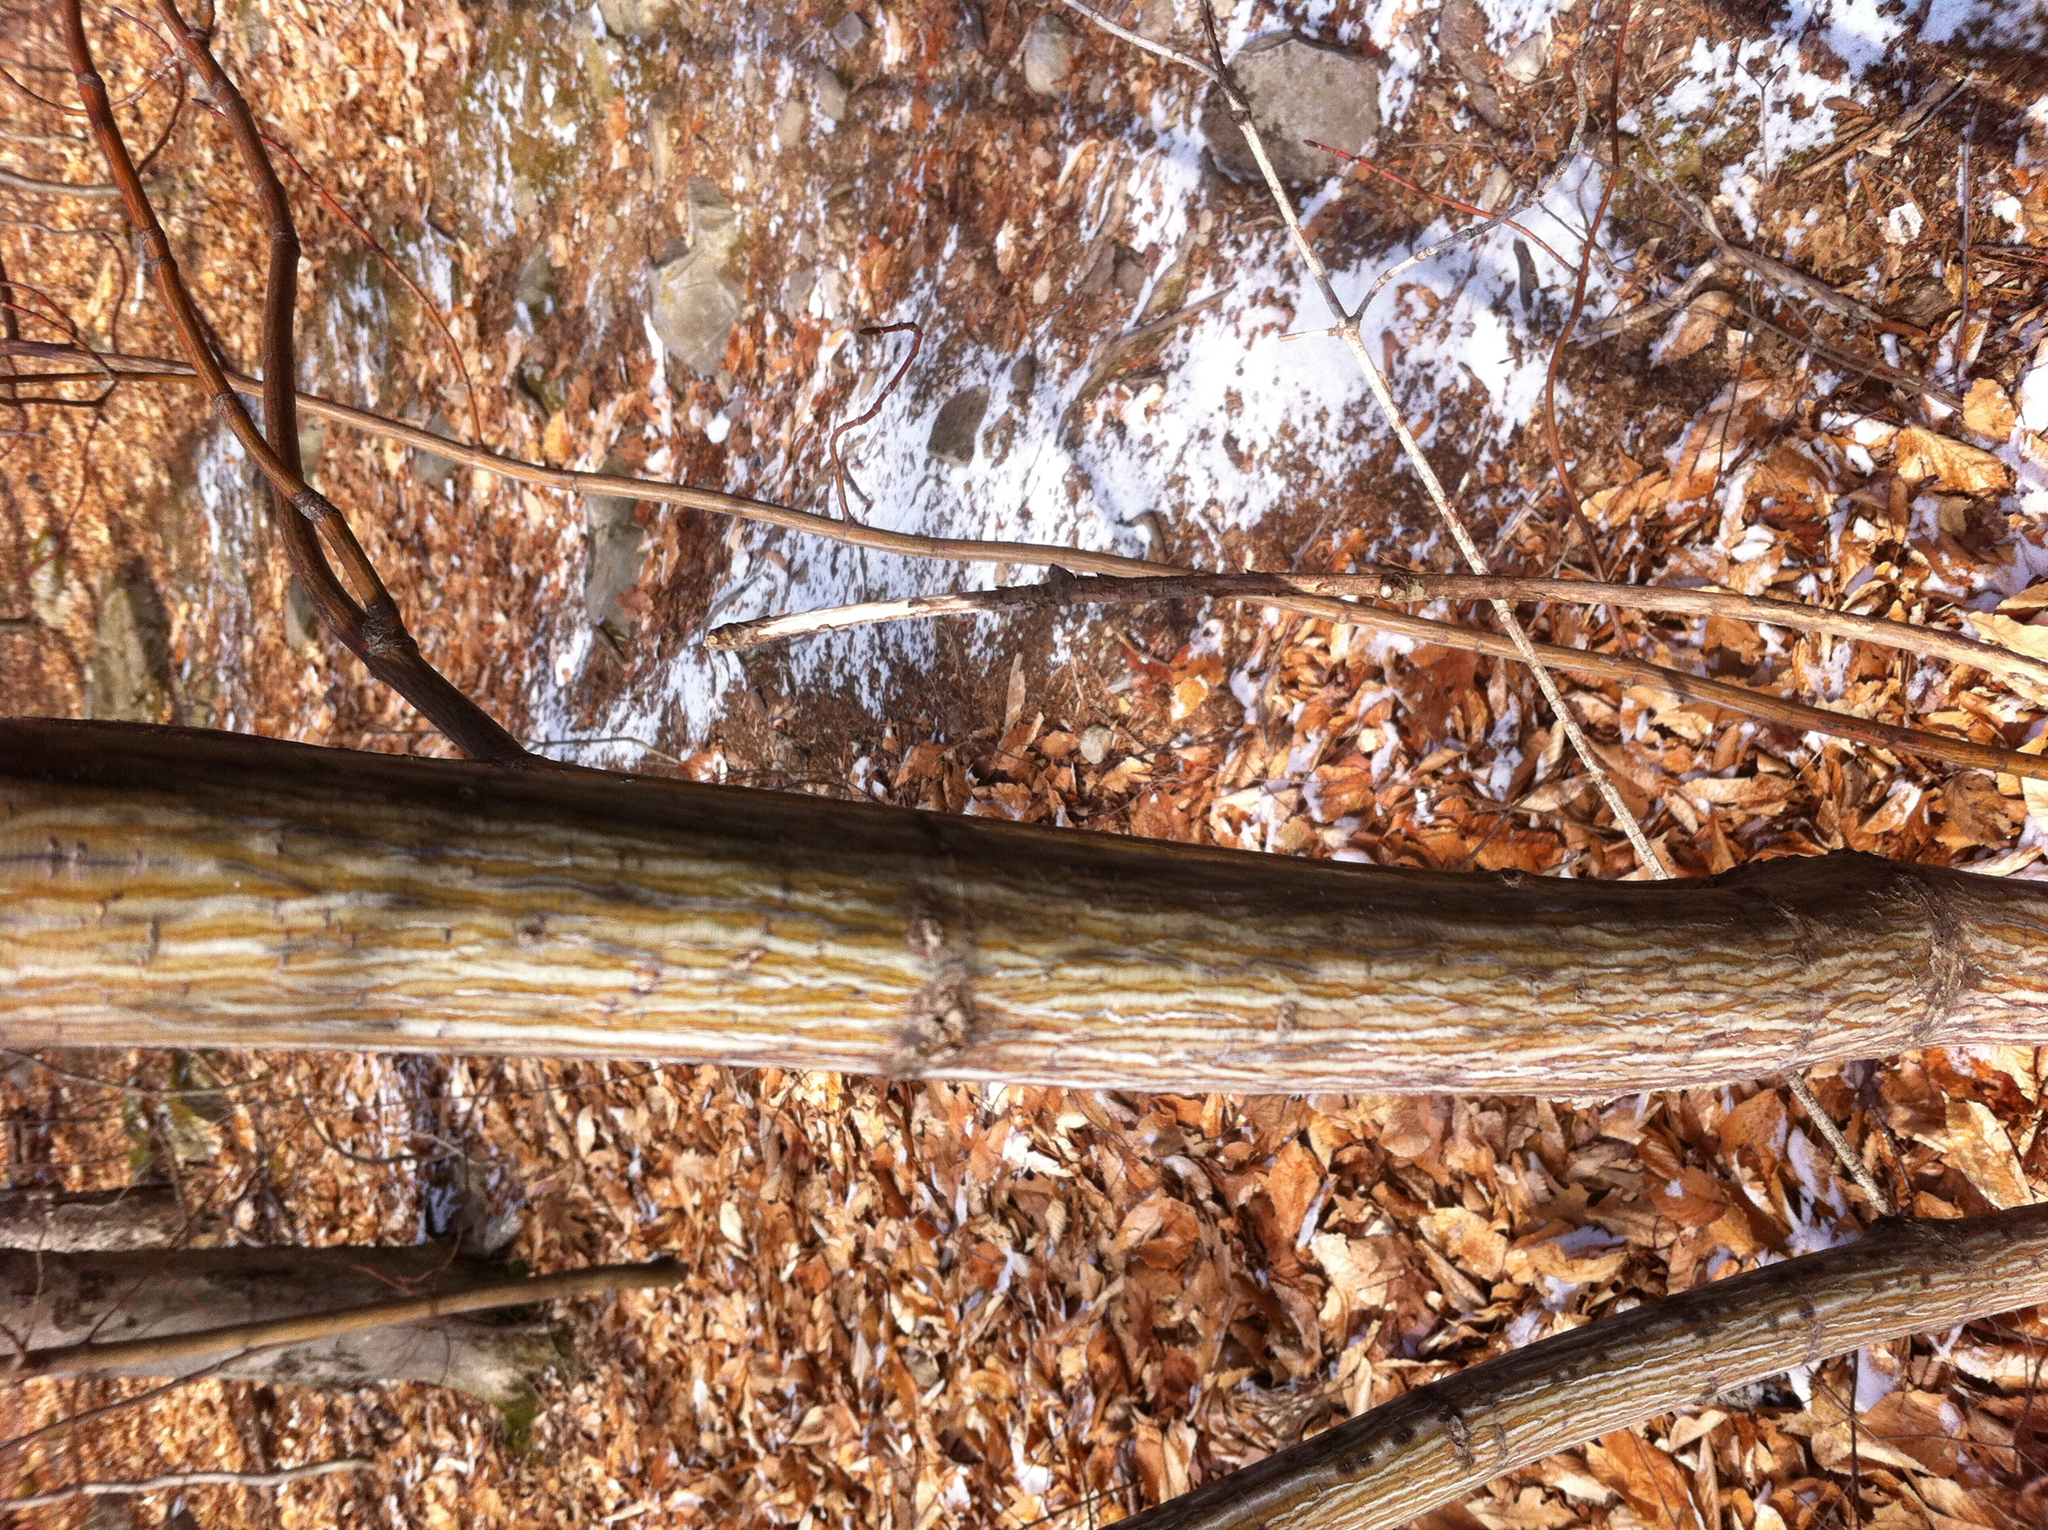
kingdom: Plantae
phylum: Tracheophyta
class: Magnoliopsida
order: Sapindales
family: Sapindaceae
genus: Acer
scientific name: Acer pensylvanicum
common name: Moosewood
